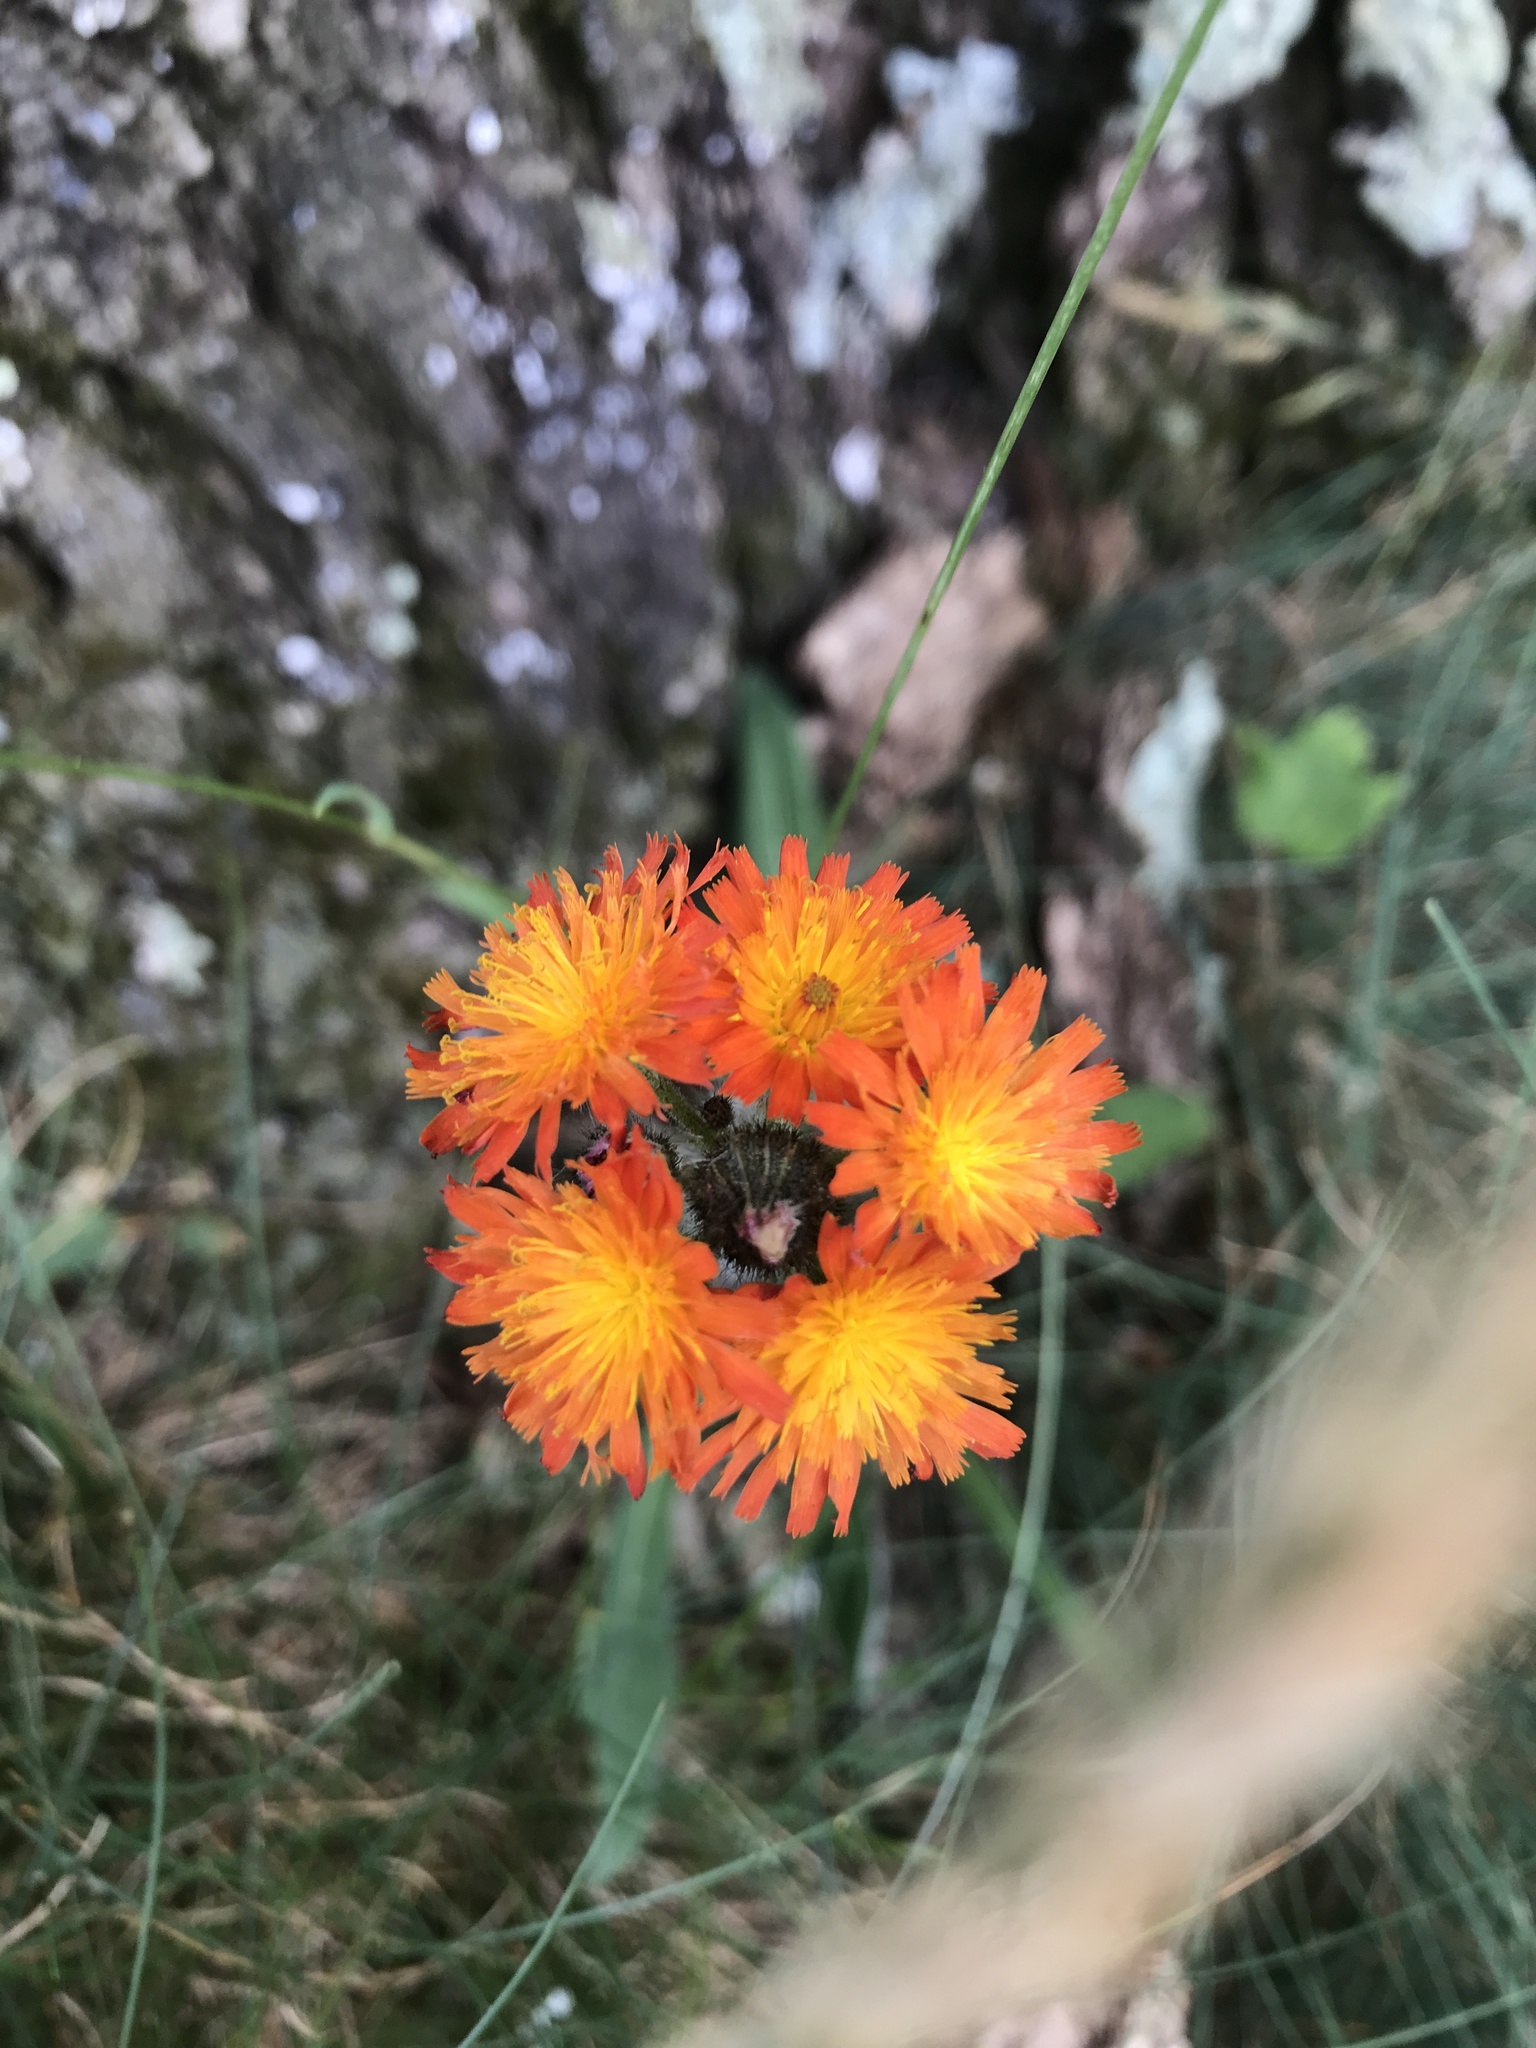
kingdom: Plantae
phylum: Tracheophyta
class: Magnoliopsida
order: Asterales
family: Asteraceae
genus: Pilosella
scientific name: Pilosella aurantiaca
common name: Fox-and-cubs
